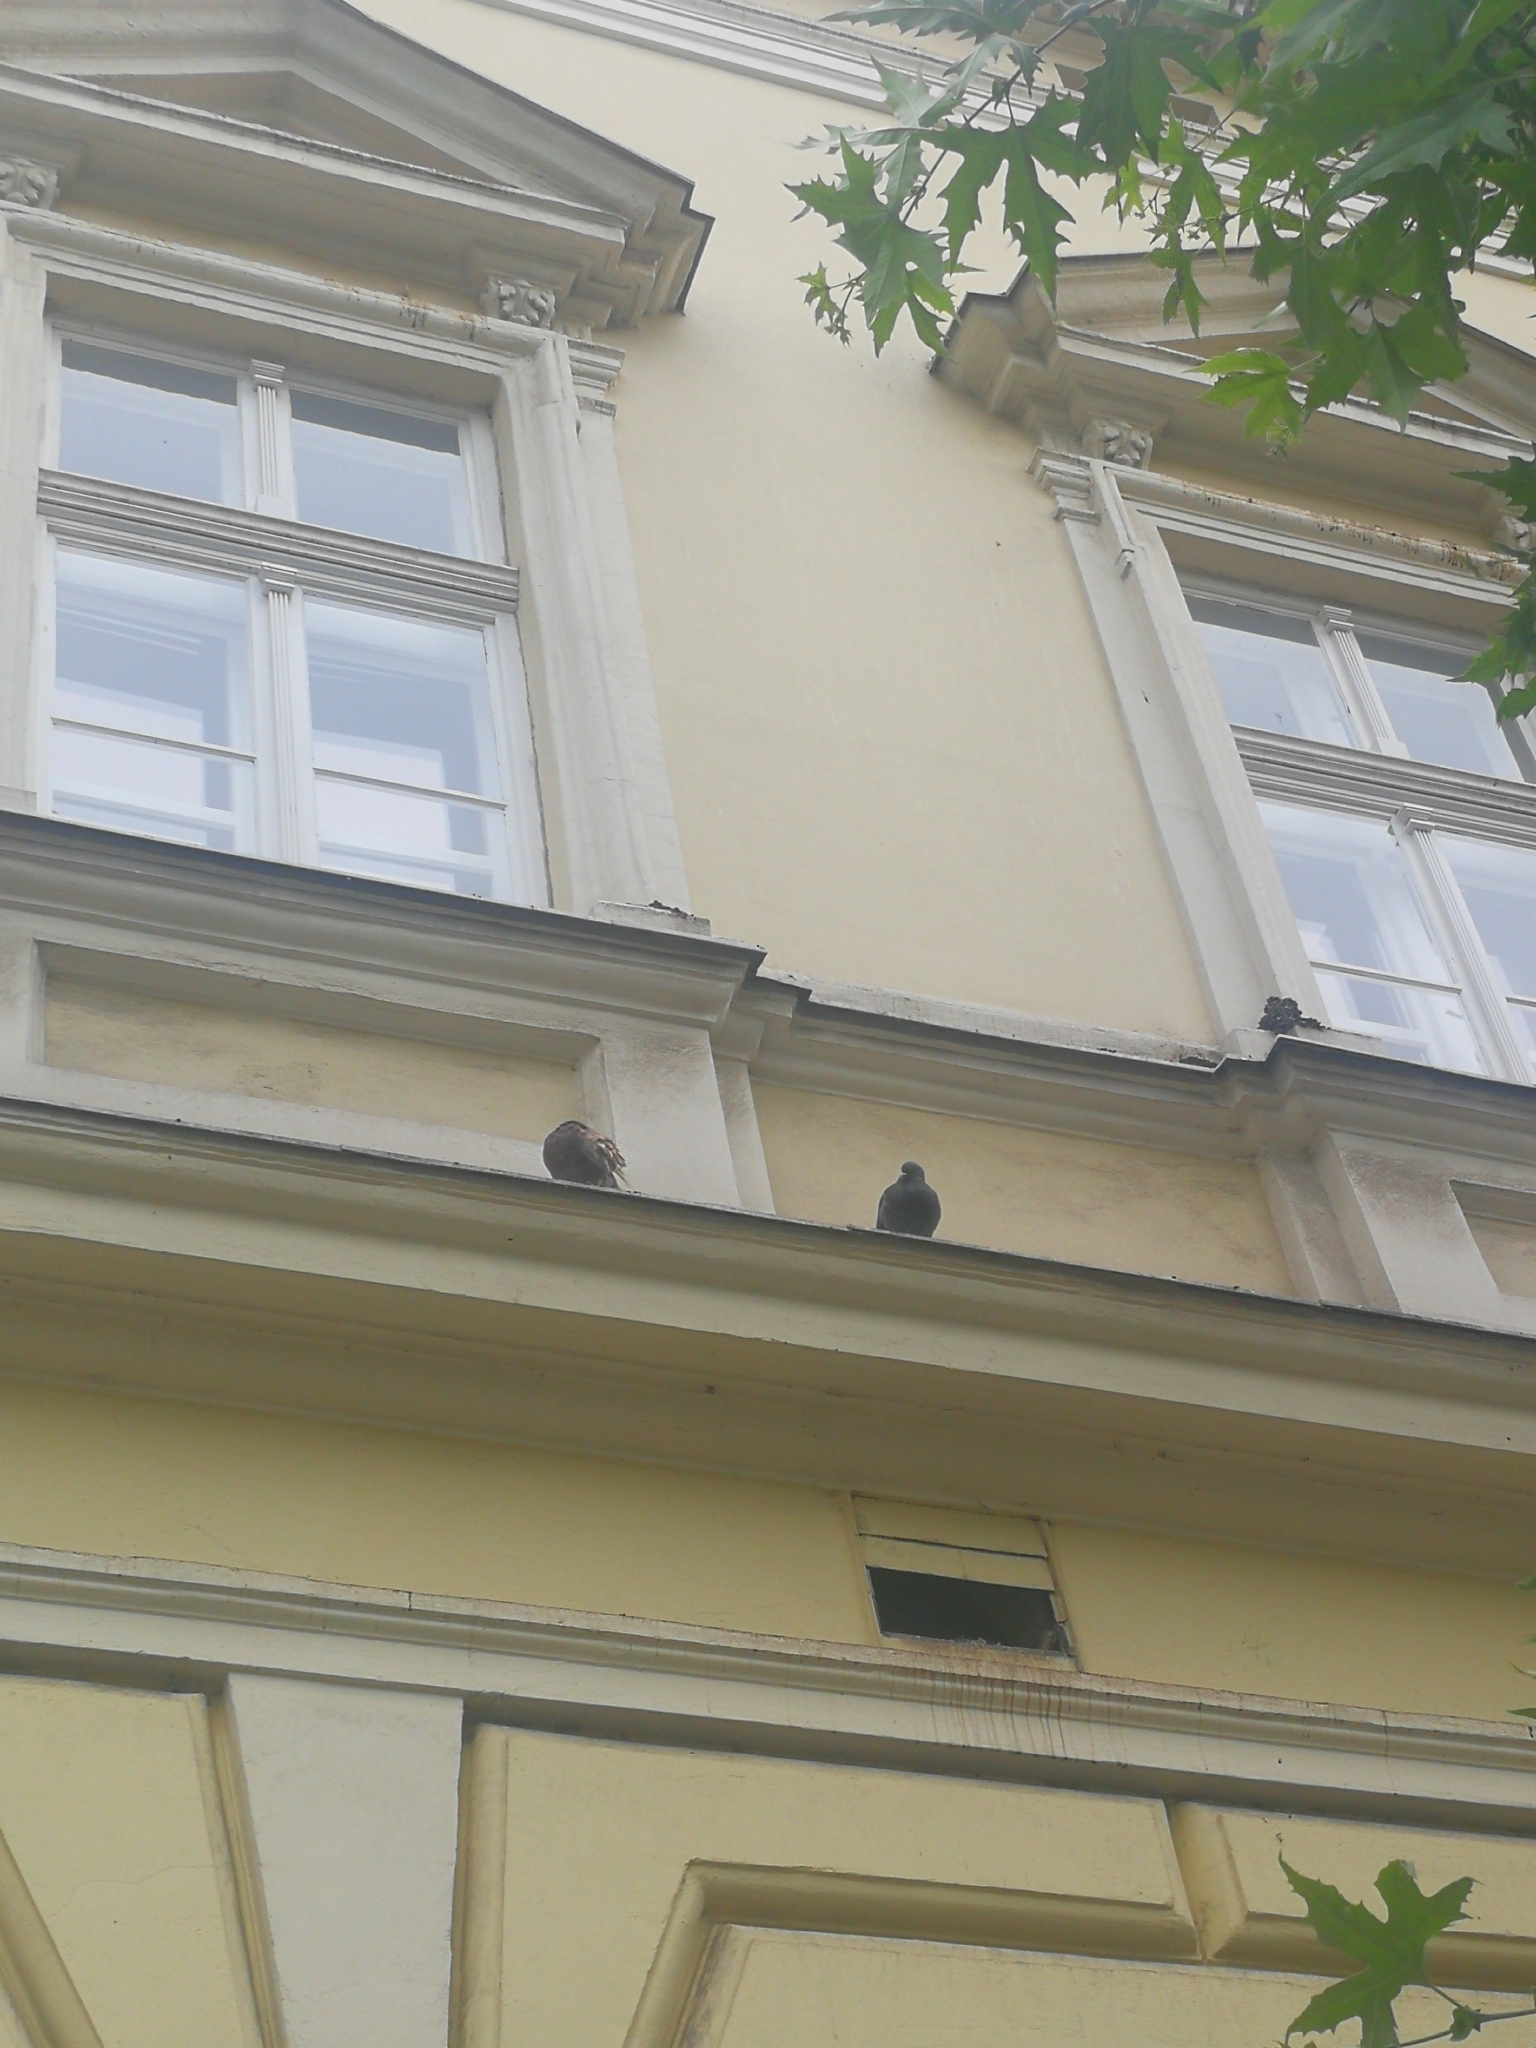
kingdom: Animalia
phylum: Chordata
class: Aves
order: Columbiformes
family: Columbidae
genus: Columba
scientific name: Columba livia
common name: Rock pigeon
